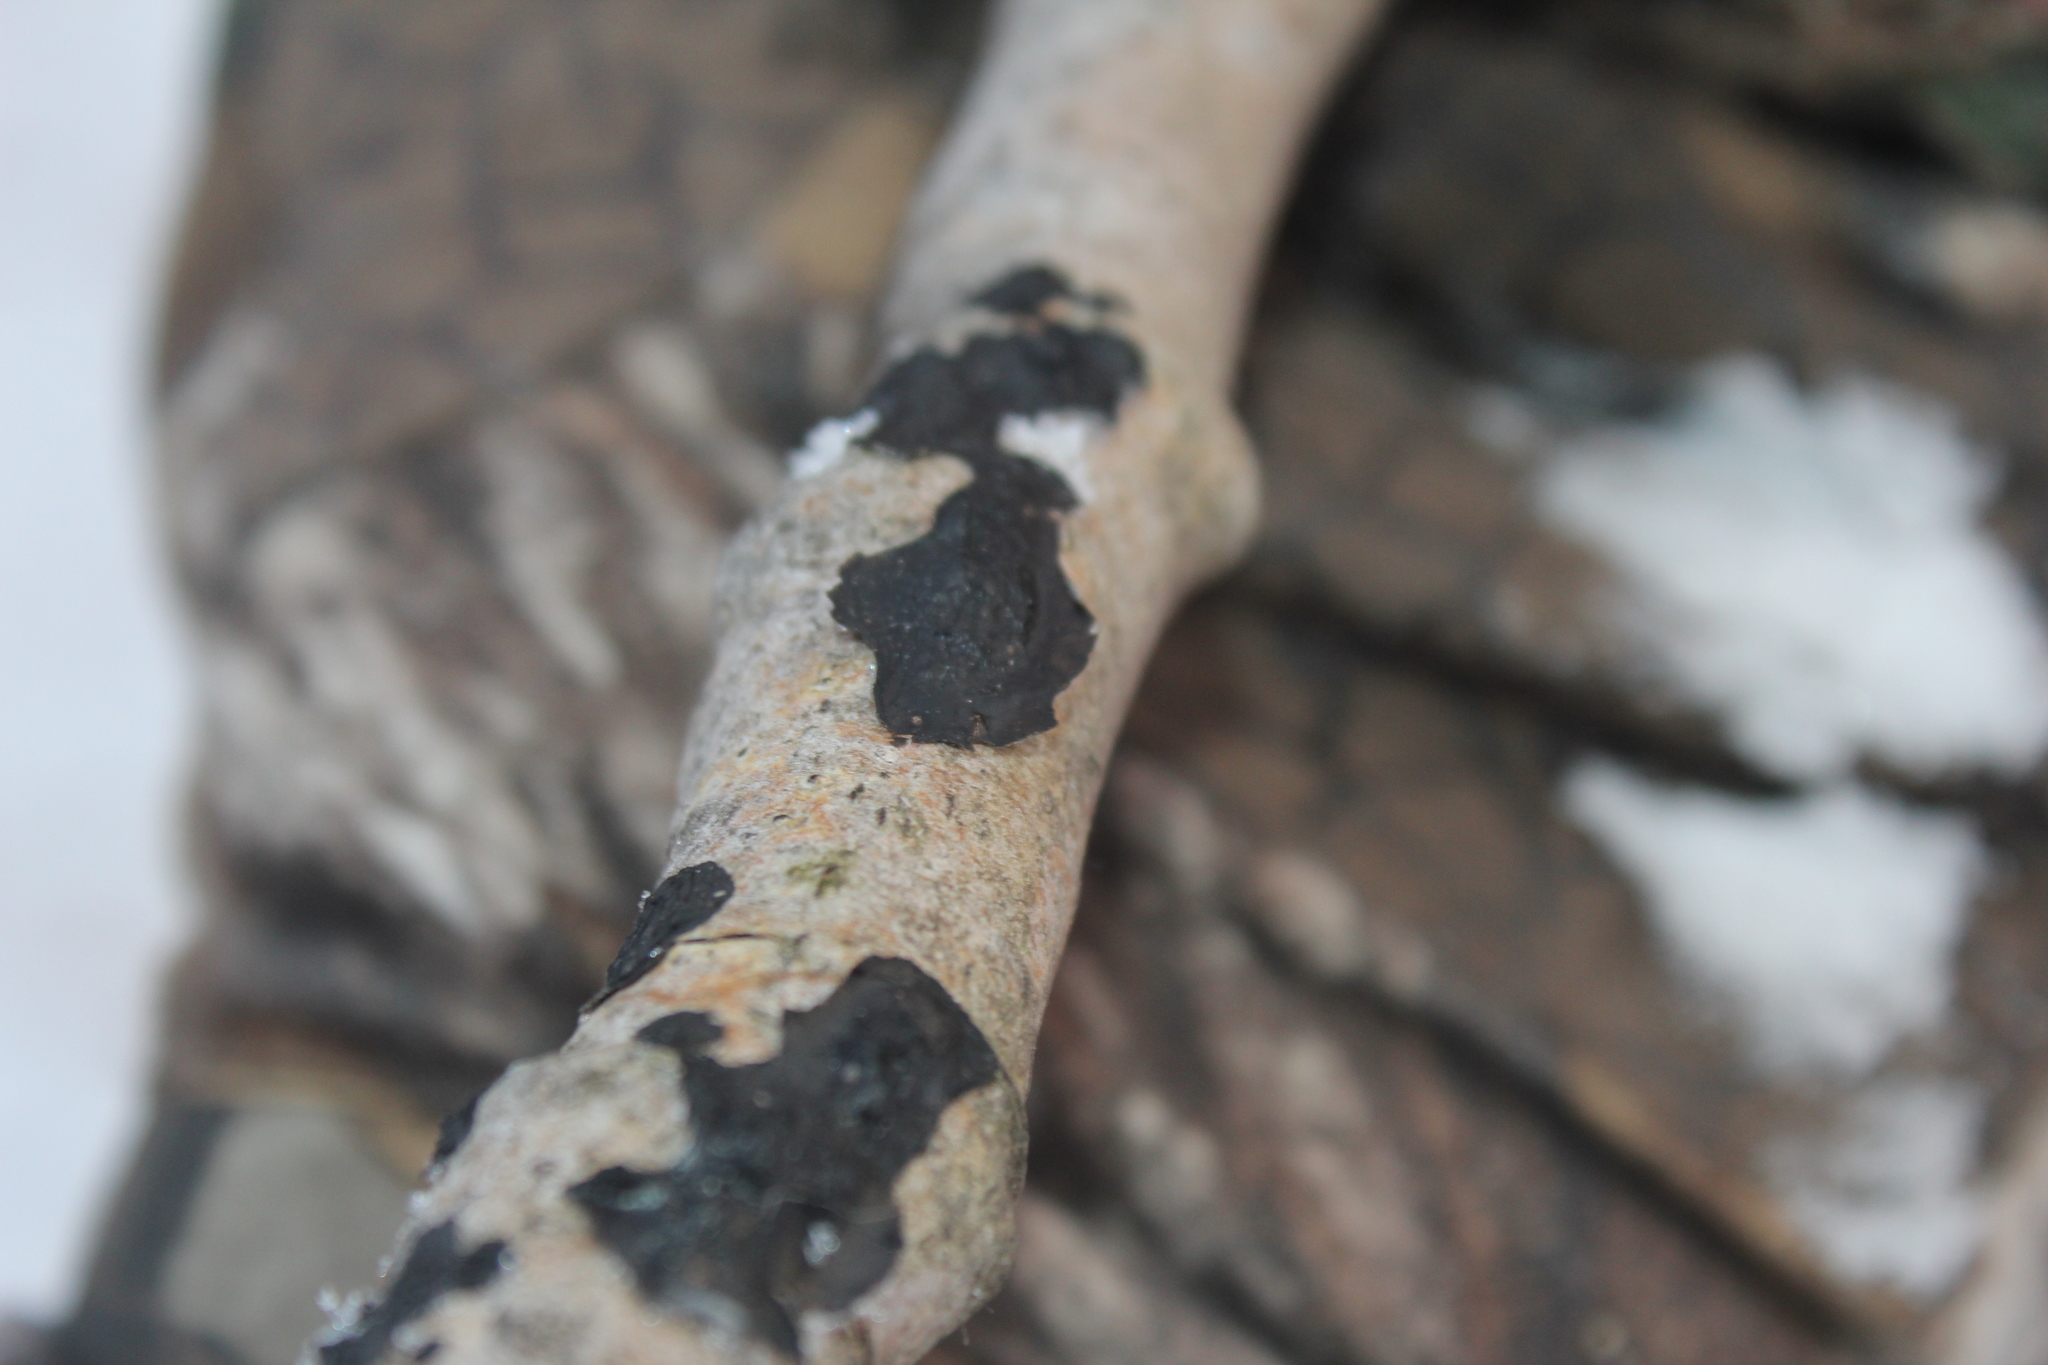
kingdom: Fungi
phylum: Basidiomycota
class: Agaricomycetes
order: Auriculariales
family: Auriculariaceae
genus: Exidia
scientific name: Exidia glandulosa
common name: Witches' butter
